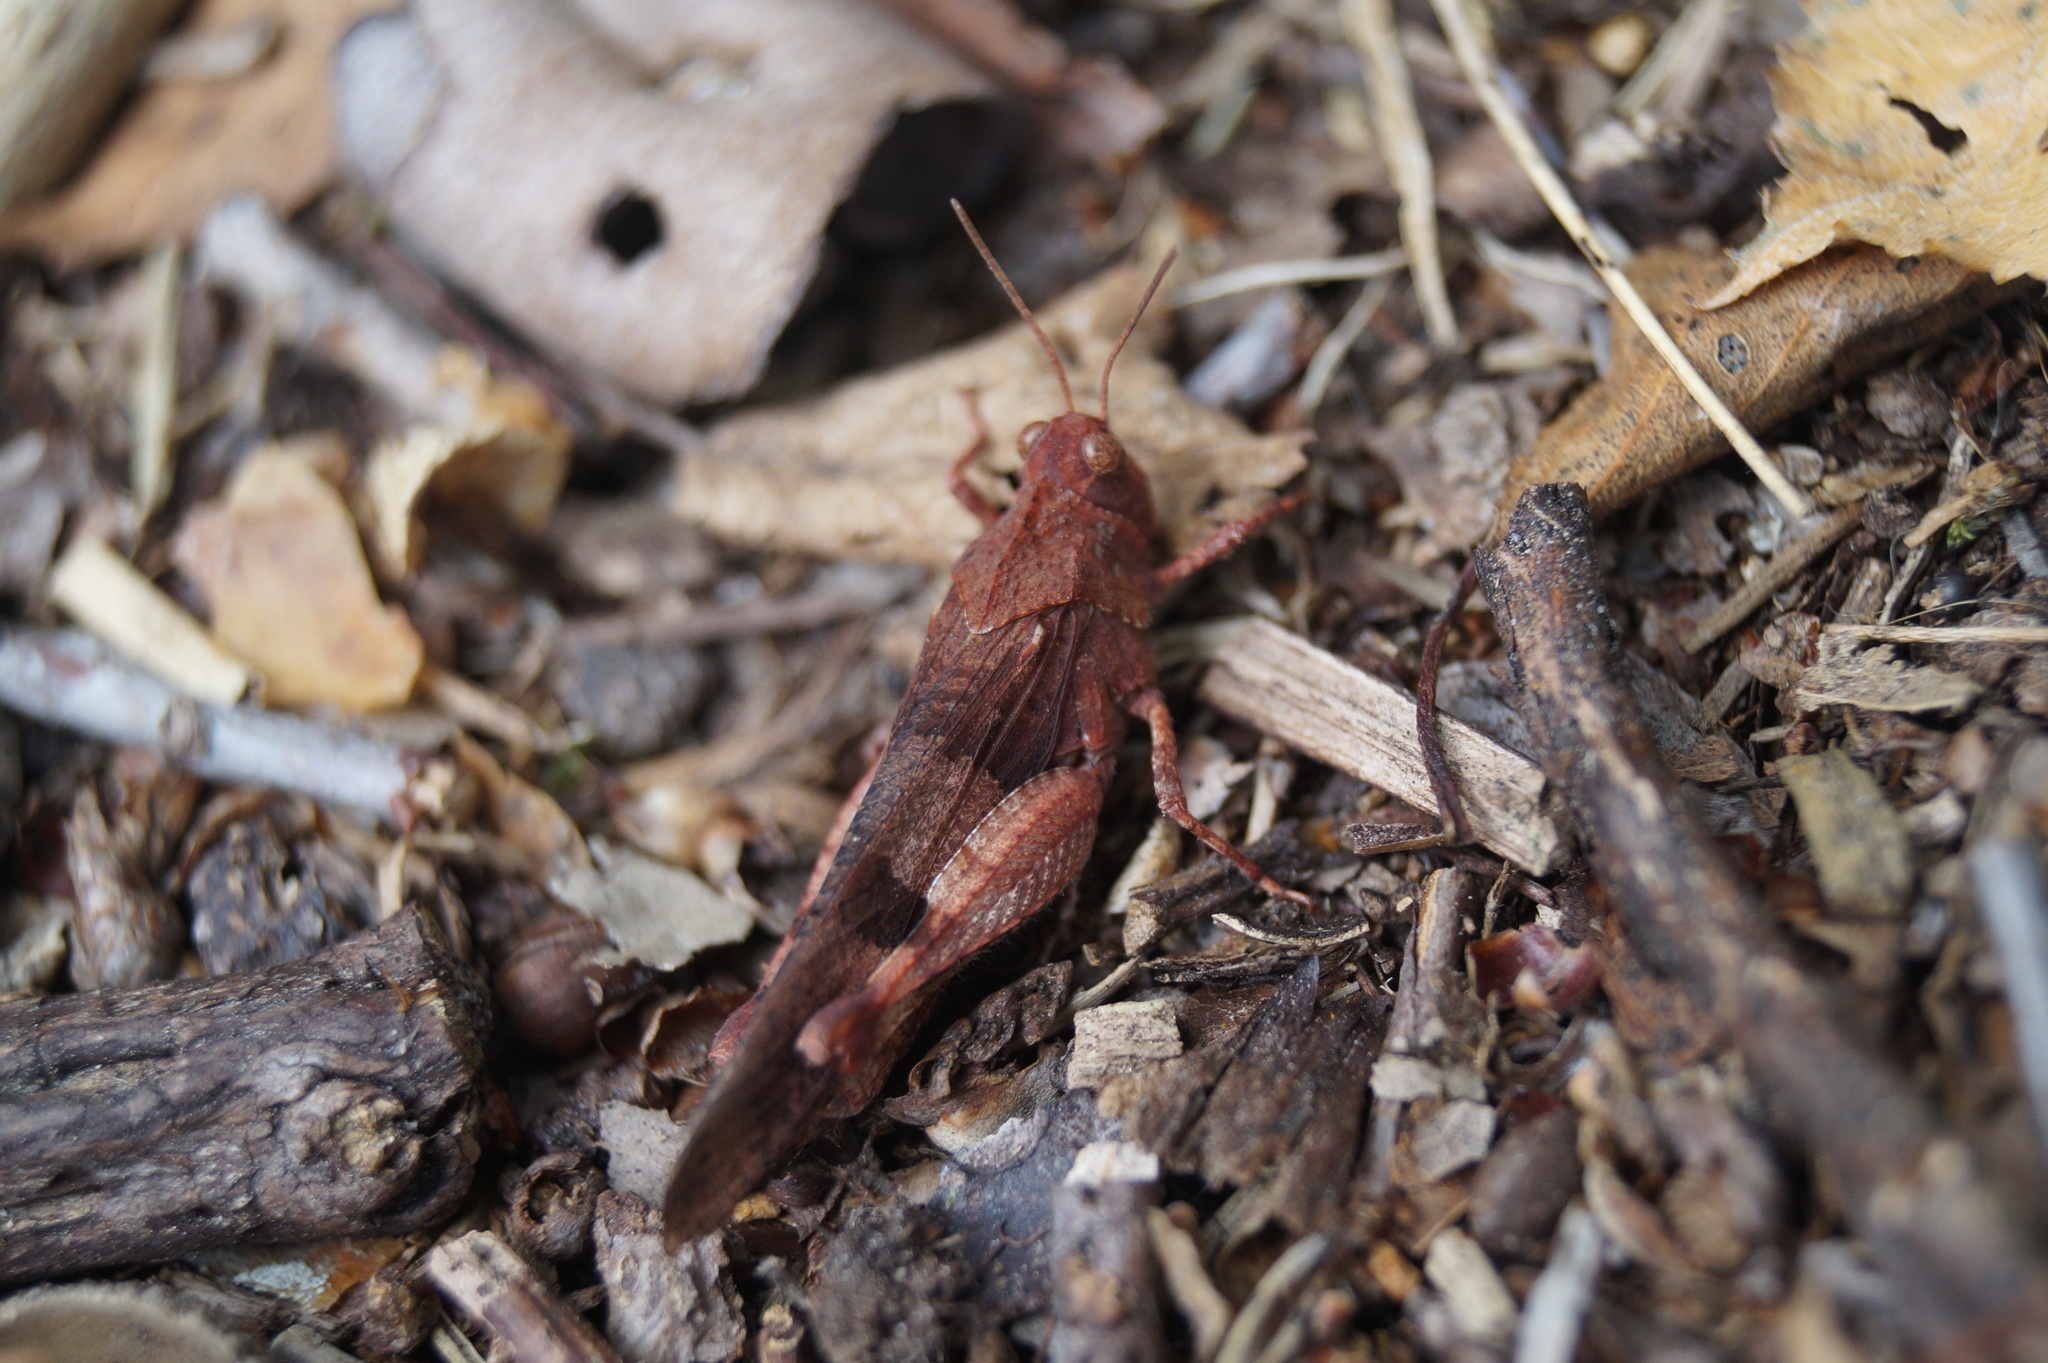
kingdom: Animalia
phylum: Arthropoda
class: Insecta
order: Orthoptera
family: Acrididae
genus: Oedipoda
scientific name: Oedipoda caerulescens
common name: Blue-winged grasshopper
